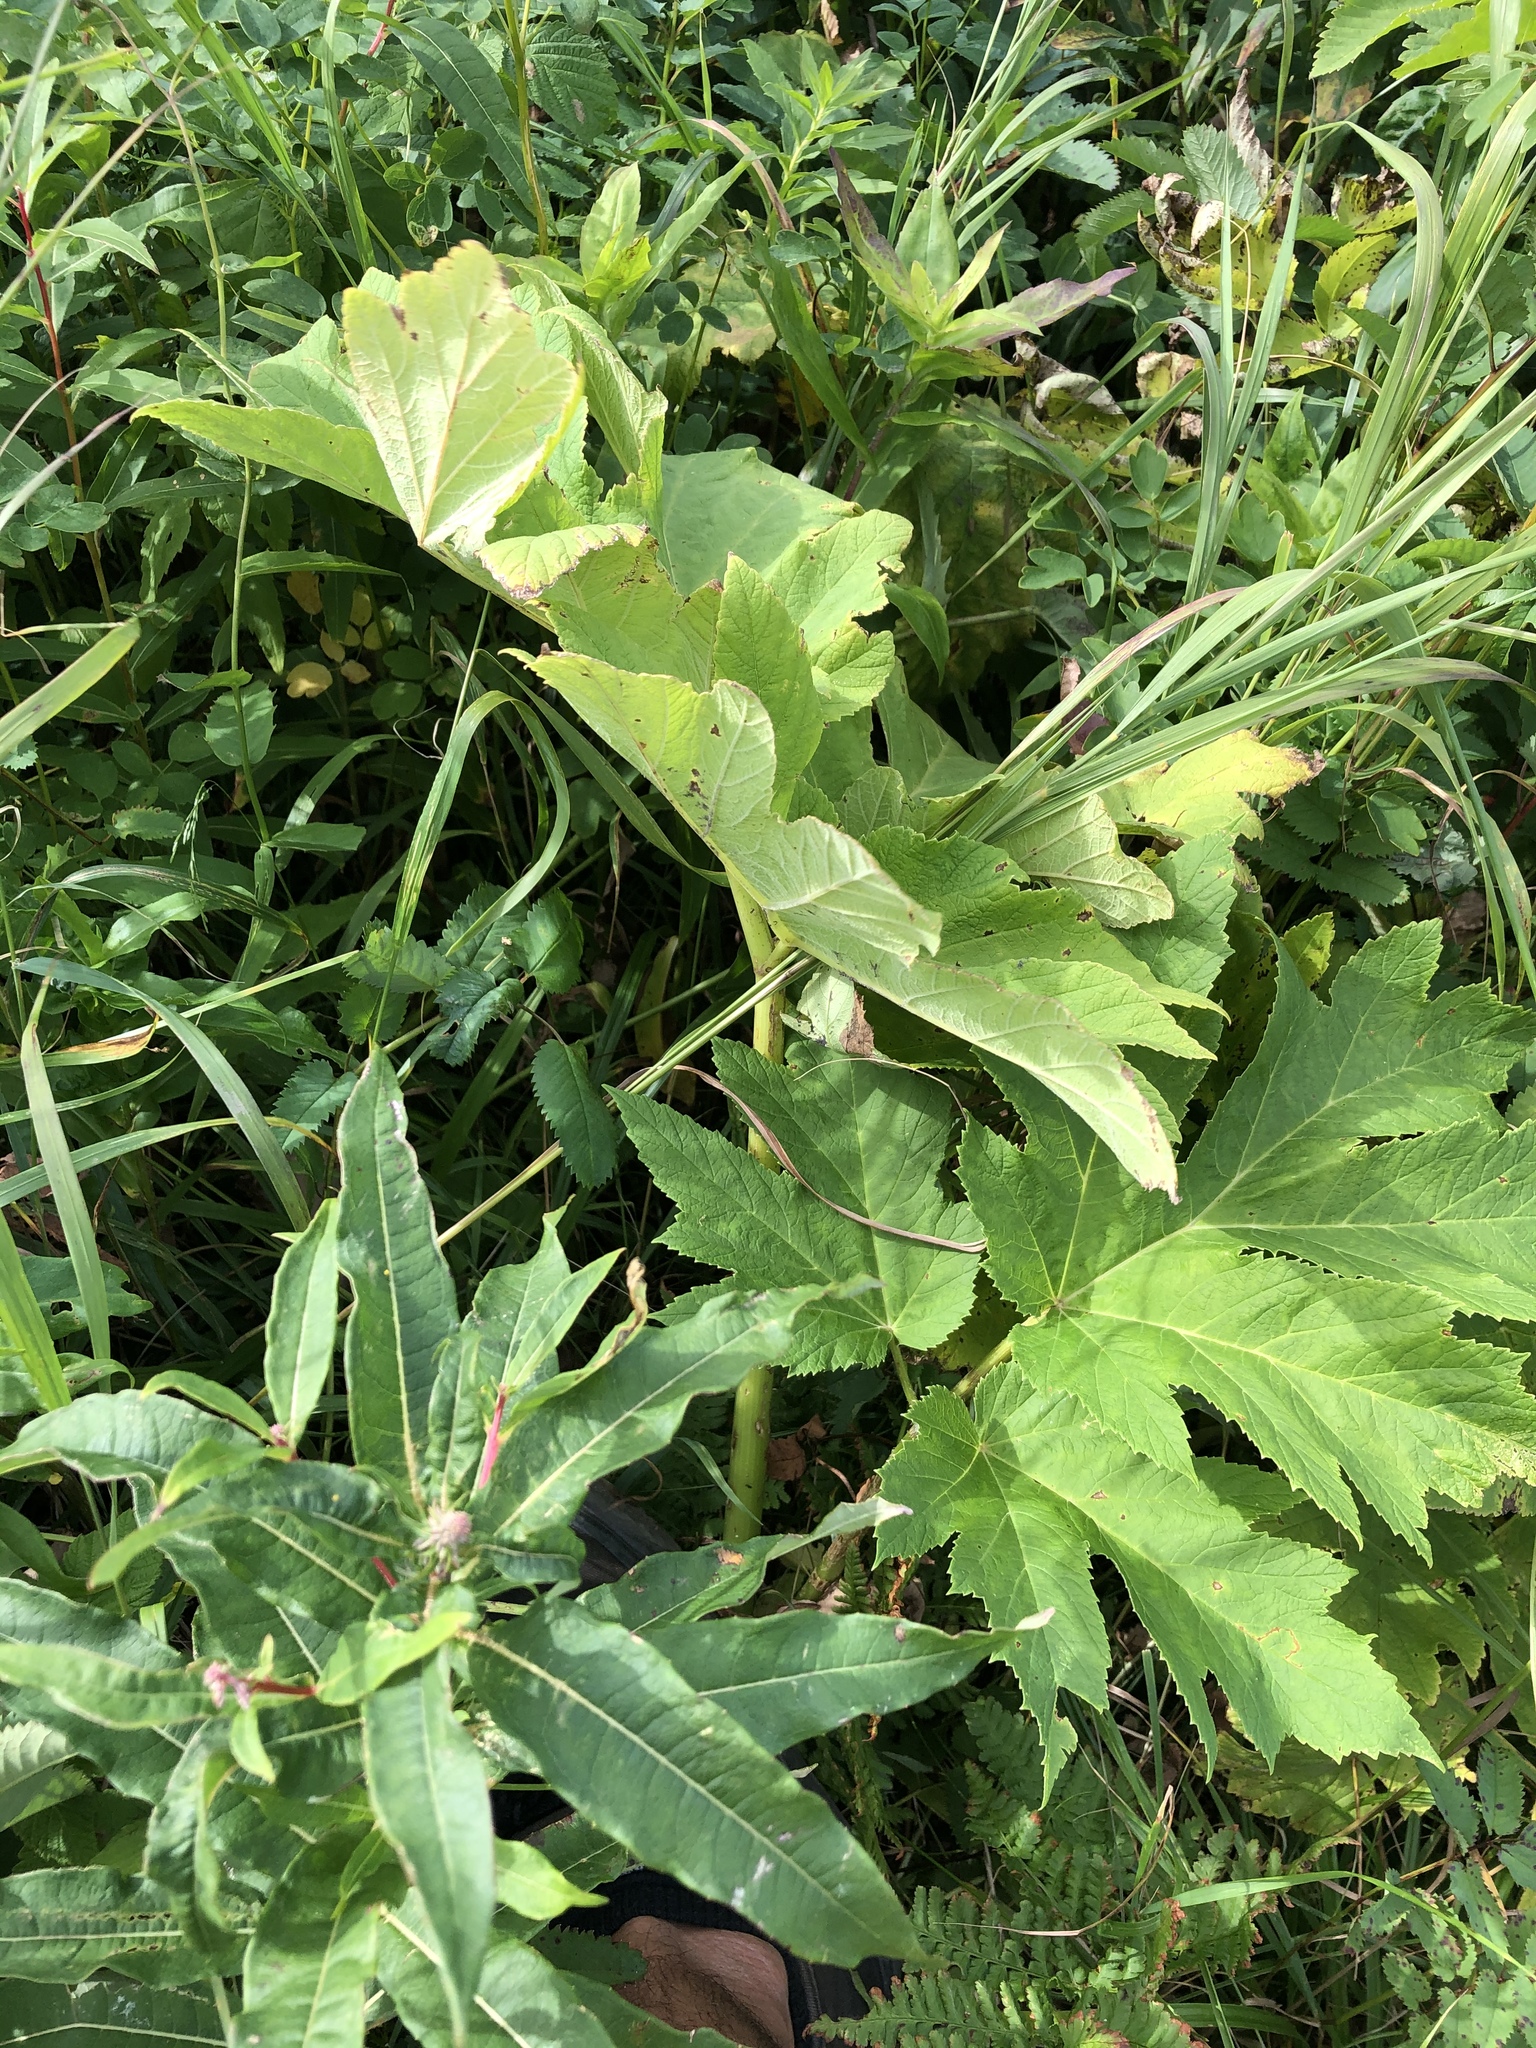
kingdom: Plantae
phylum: Tracheophyta
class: Magnoliopsida
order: Apiales
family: Apiaceae
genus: Heracleum
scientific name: Heracleum maximum
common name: American cow parsnip
